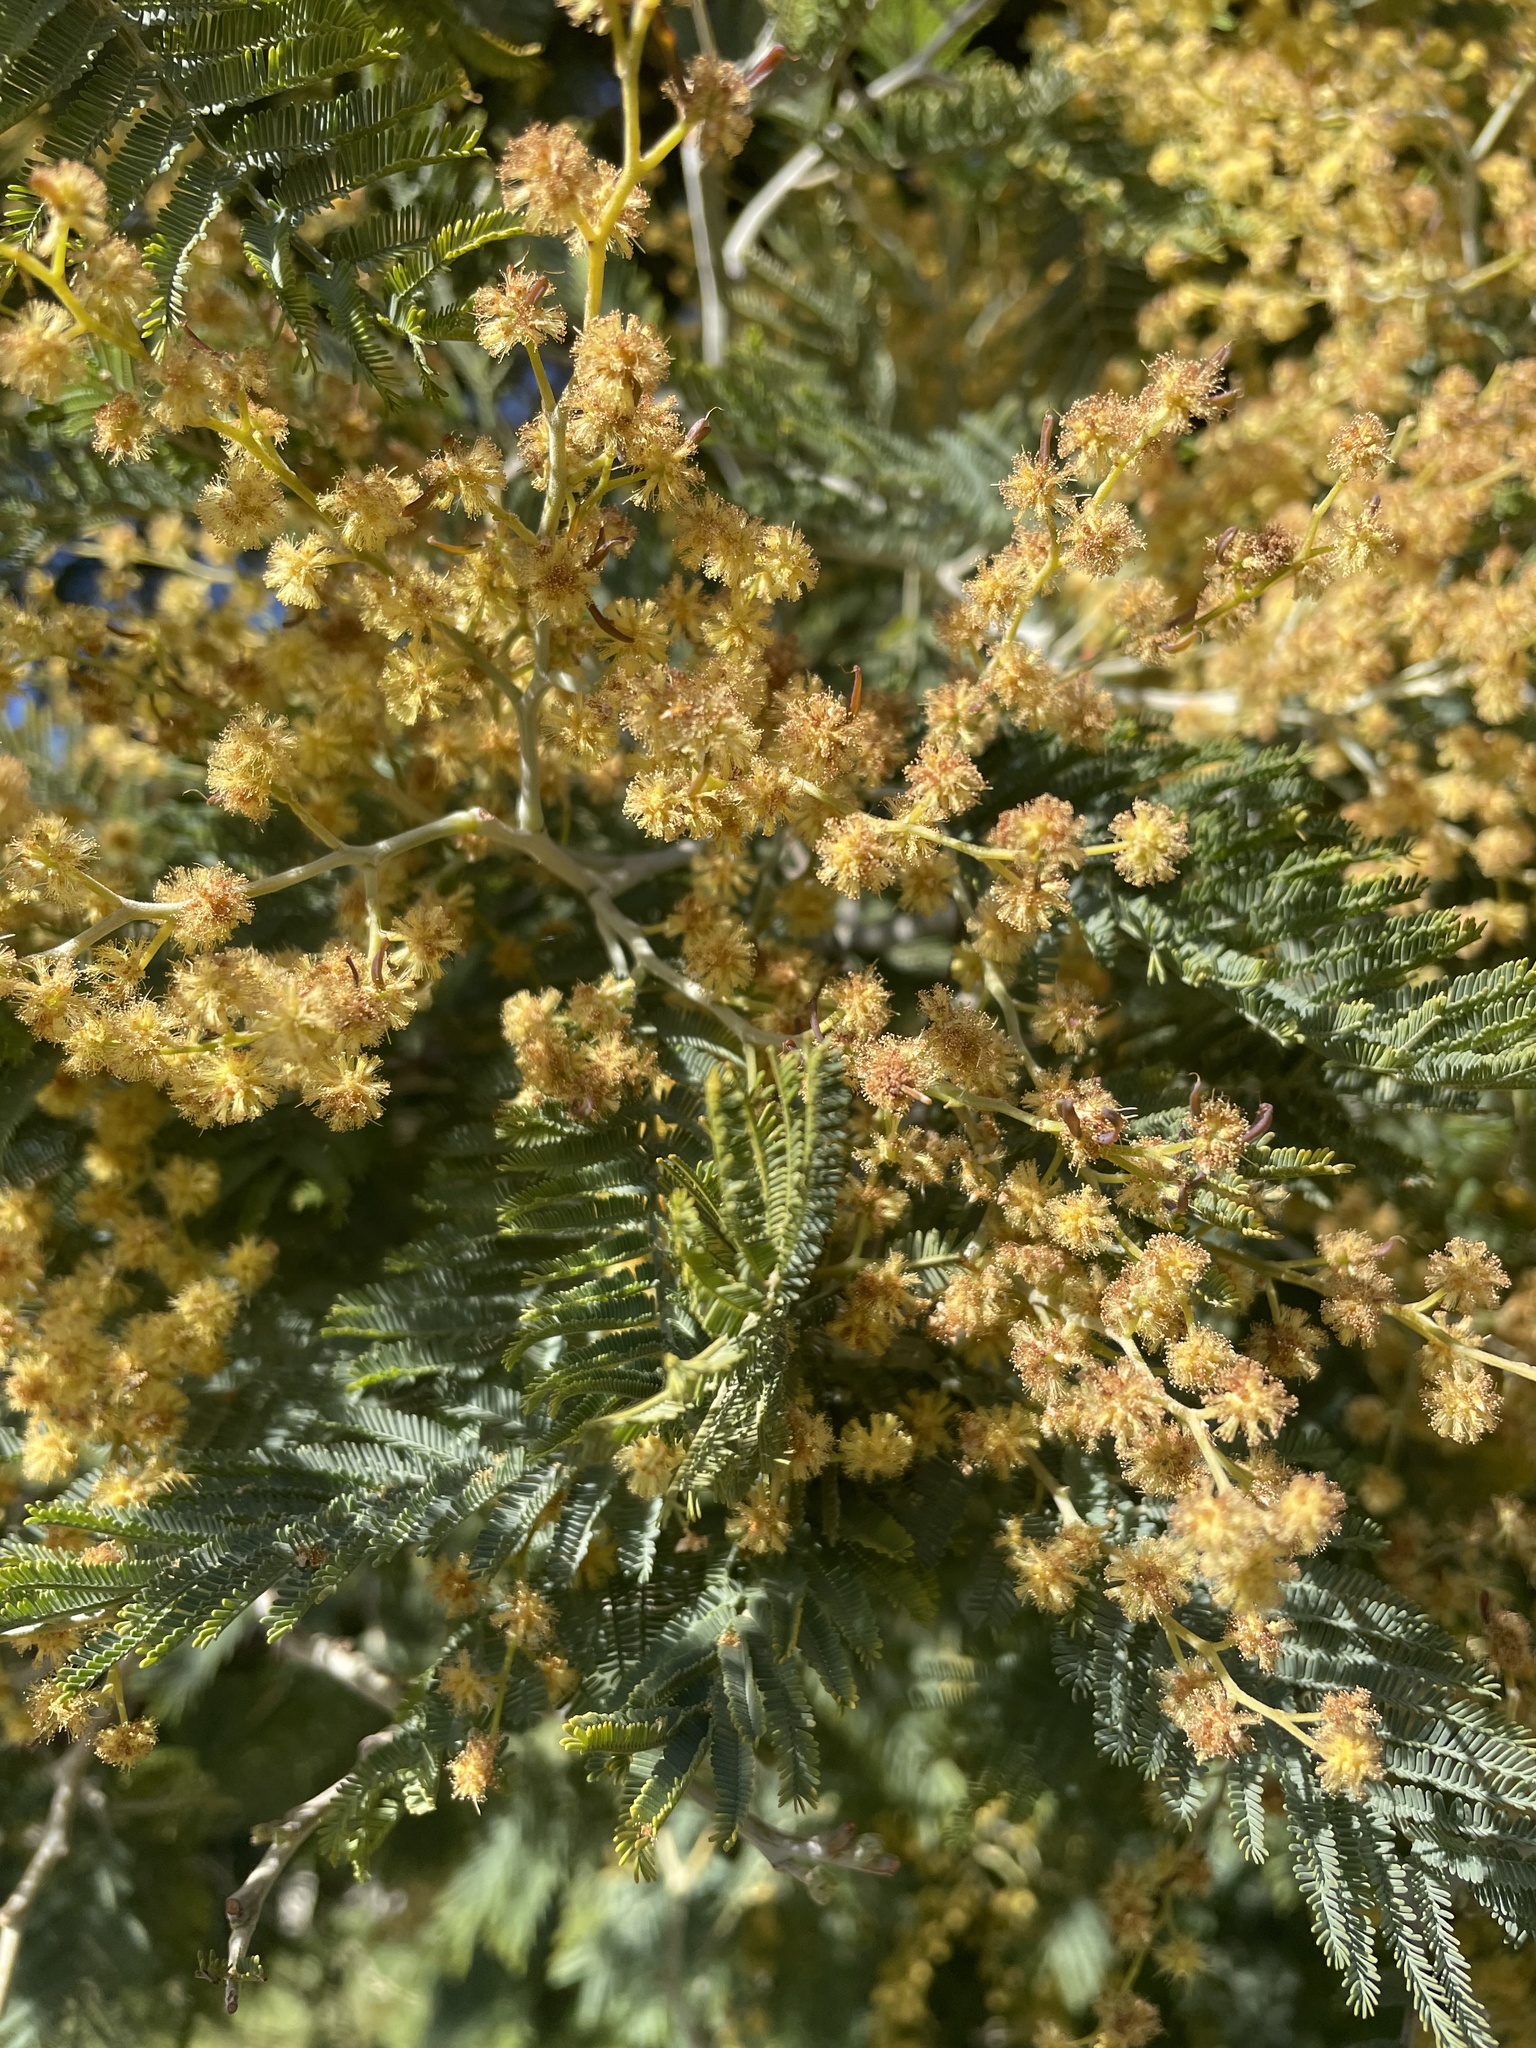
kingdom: Plantae
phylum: Tracheophyta
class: Magnoliopsida
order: Fabales
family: Fabaceae
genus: Acacia
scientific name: Acacia dealbata
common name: Silver wattle
